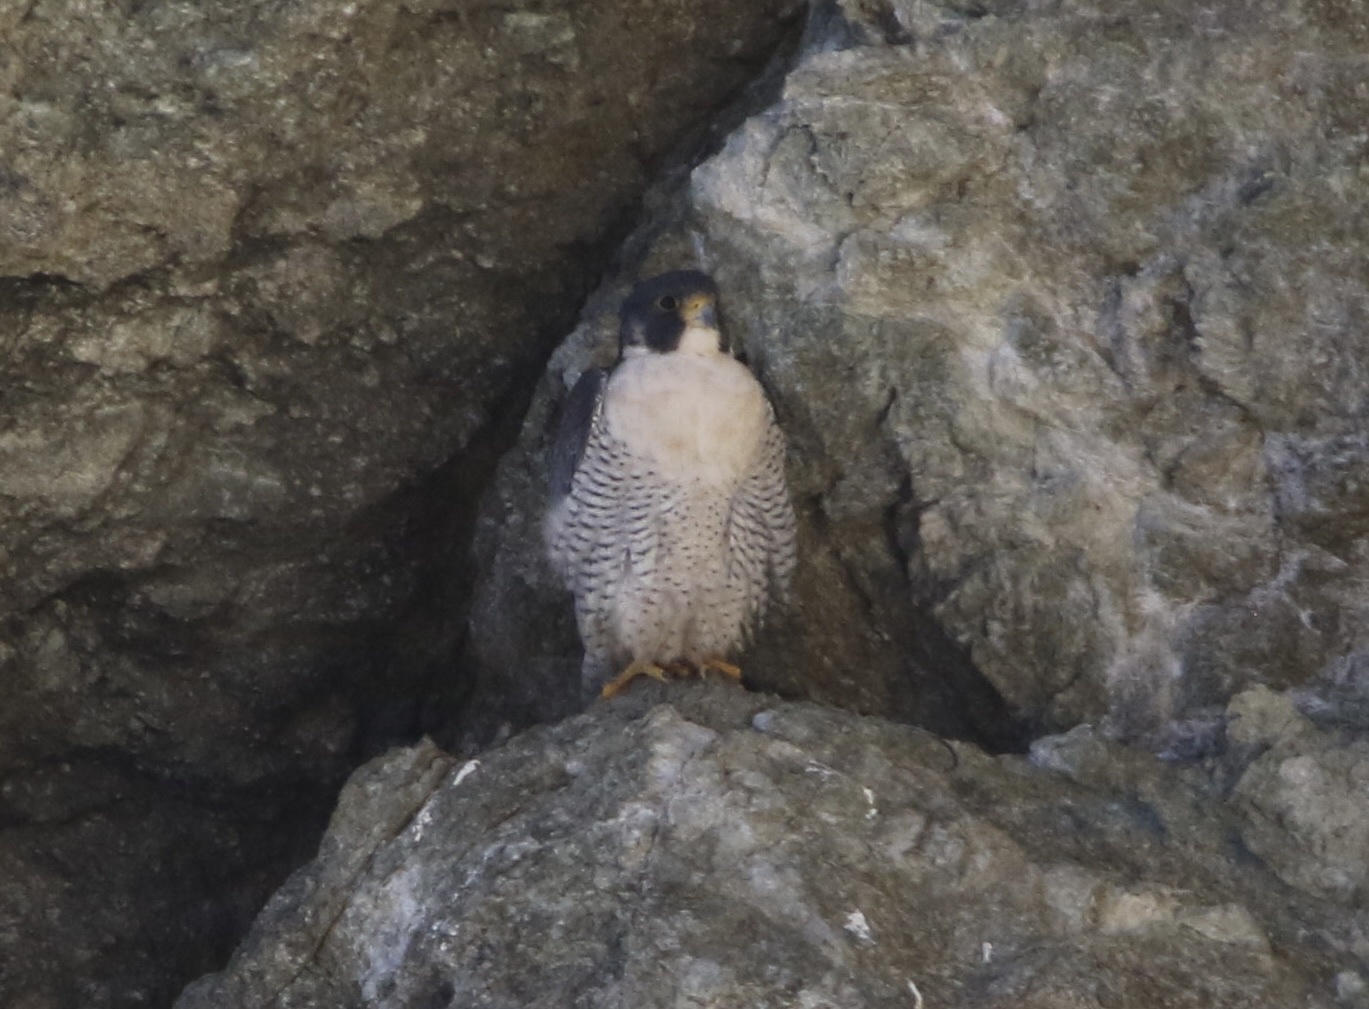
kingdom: Animalia
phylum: Chordata
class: Aves
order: Falconiformes
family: Falconidae
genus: Falco
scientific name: Falco peregrinus
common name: Peregrine falcon
